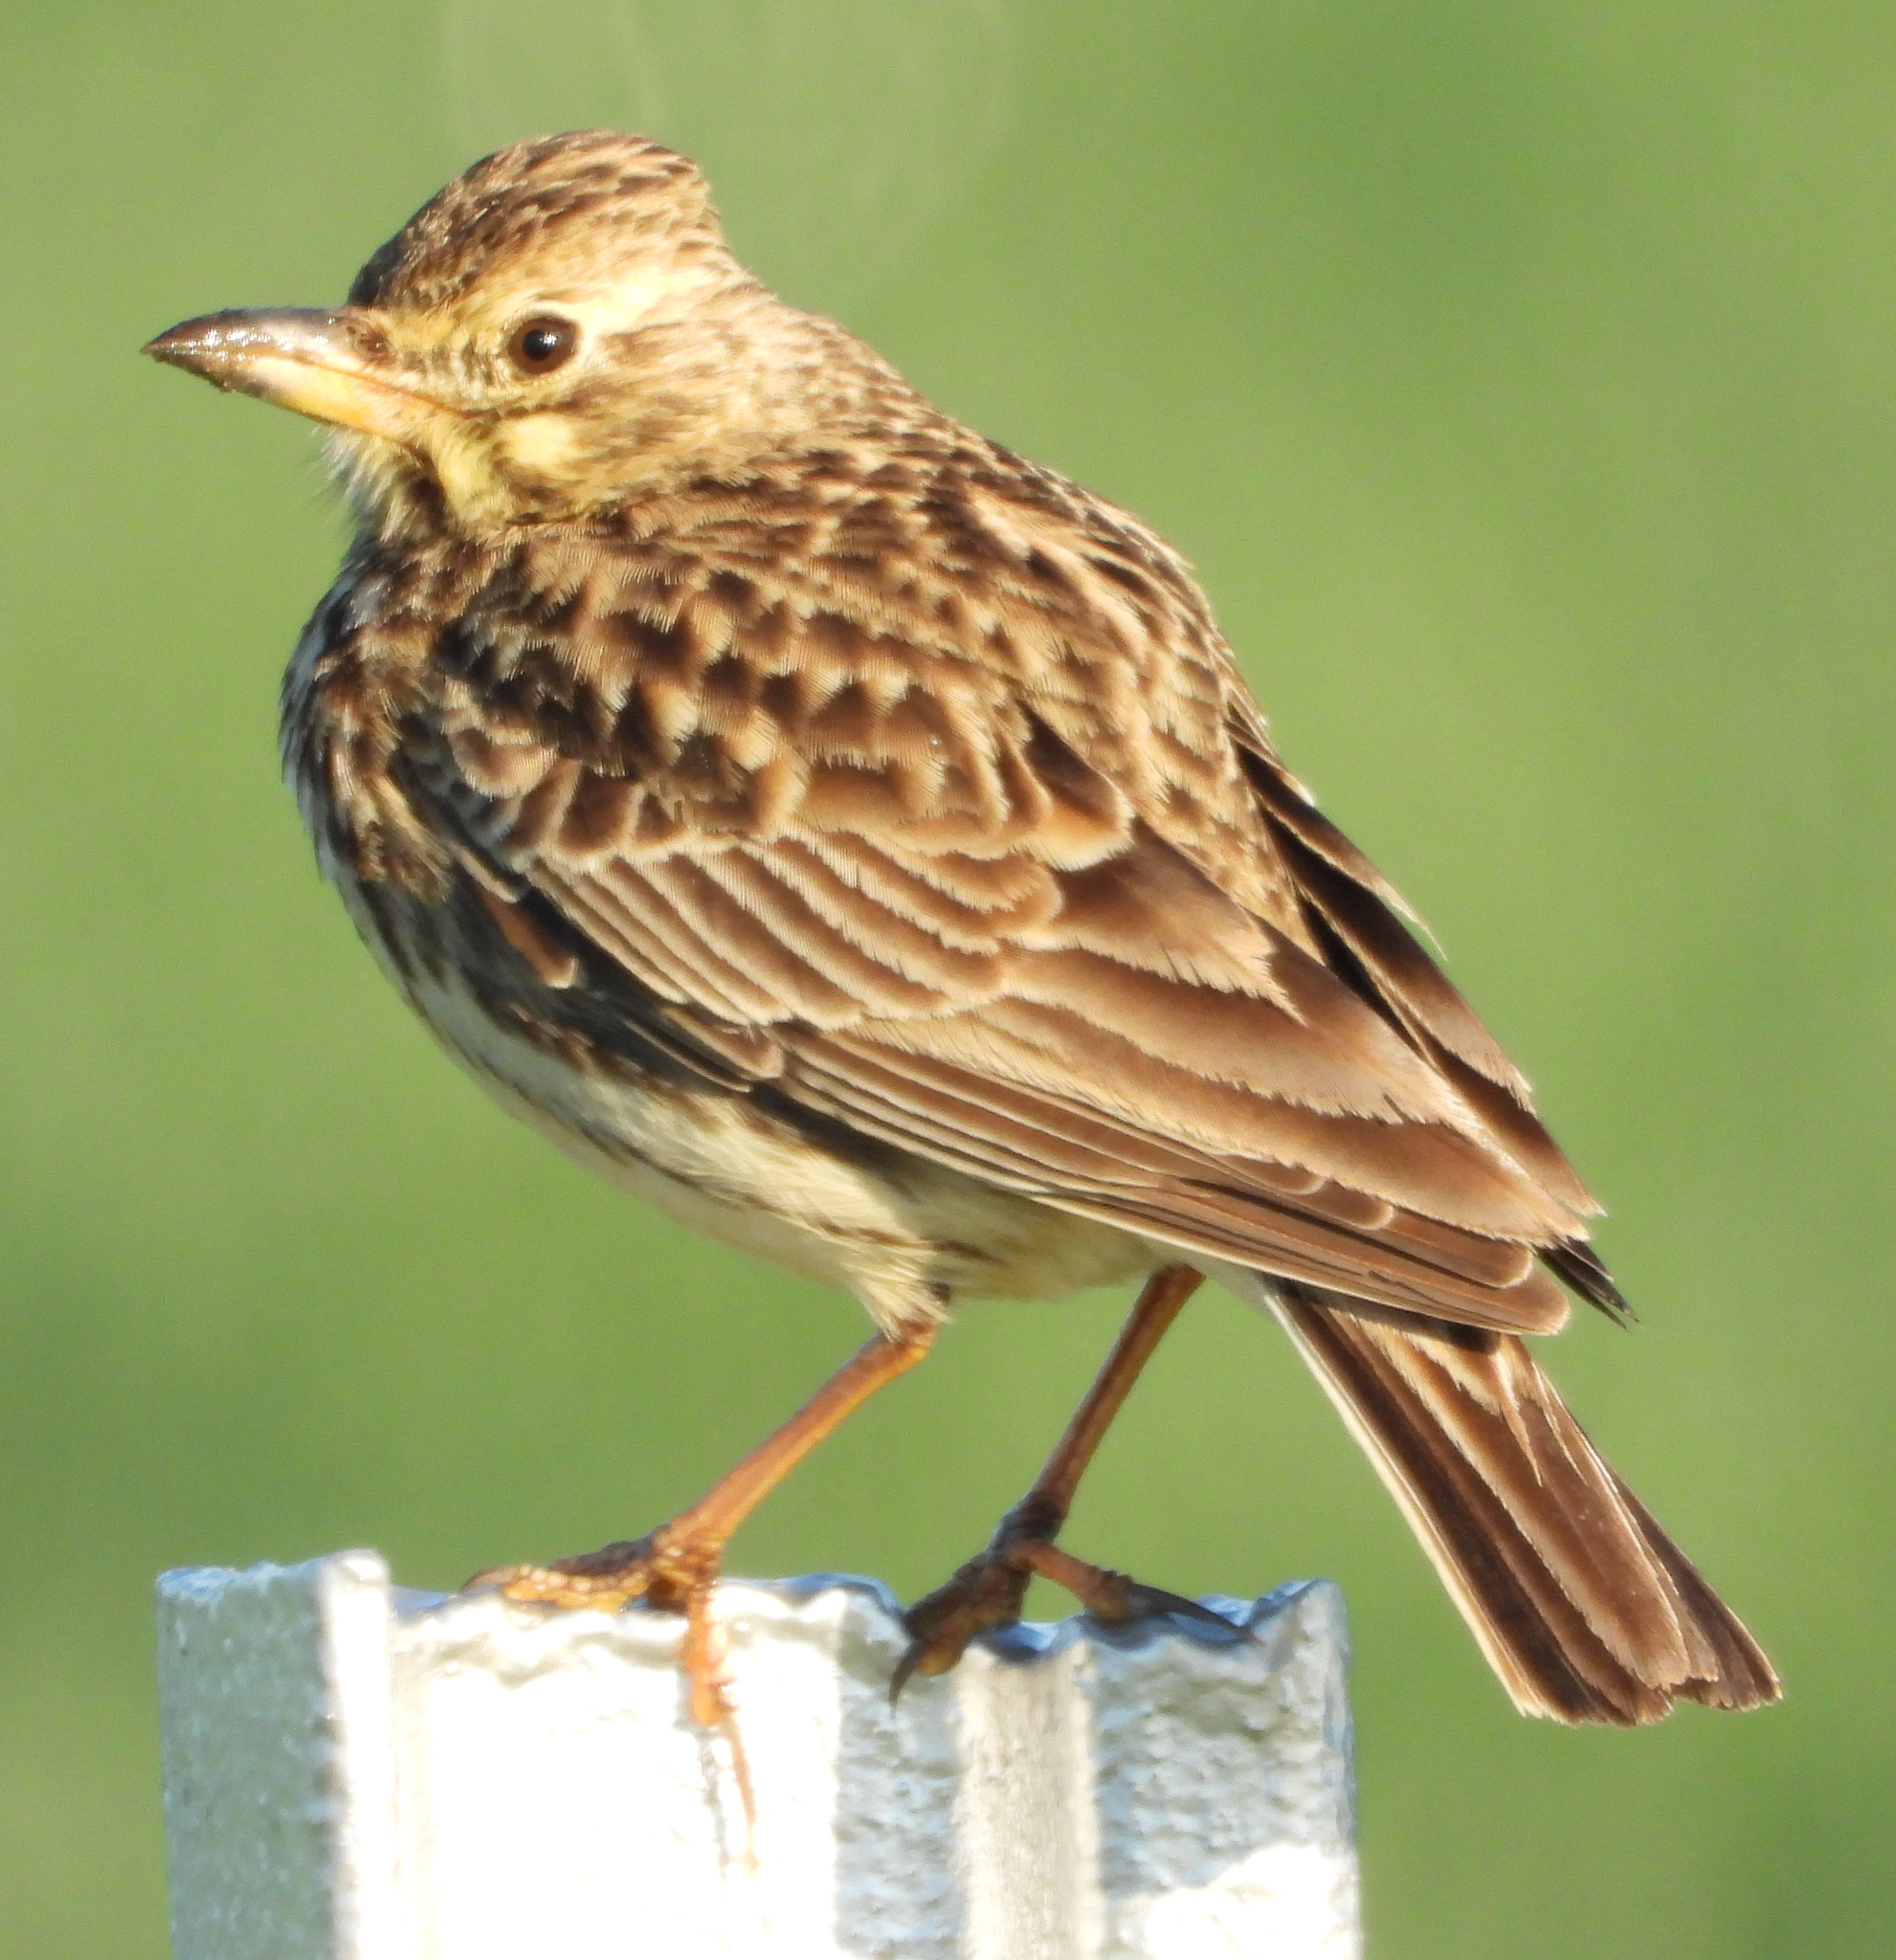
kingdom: Animalia
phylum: Chordata
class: Aves
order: Passeriformes
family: Alaudidae
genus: Galerida
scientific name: Galerida magnirostris
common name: Large-billed lark
